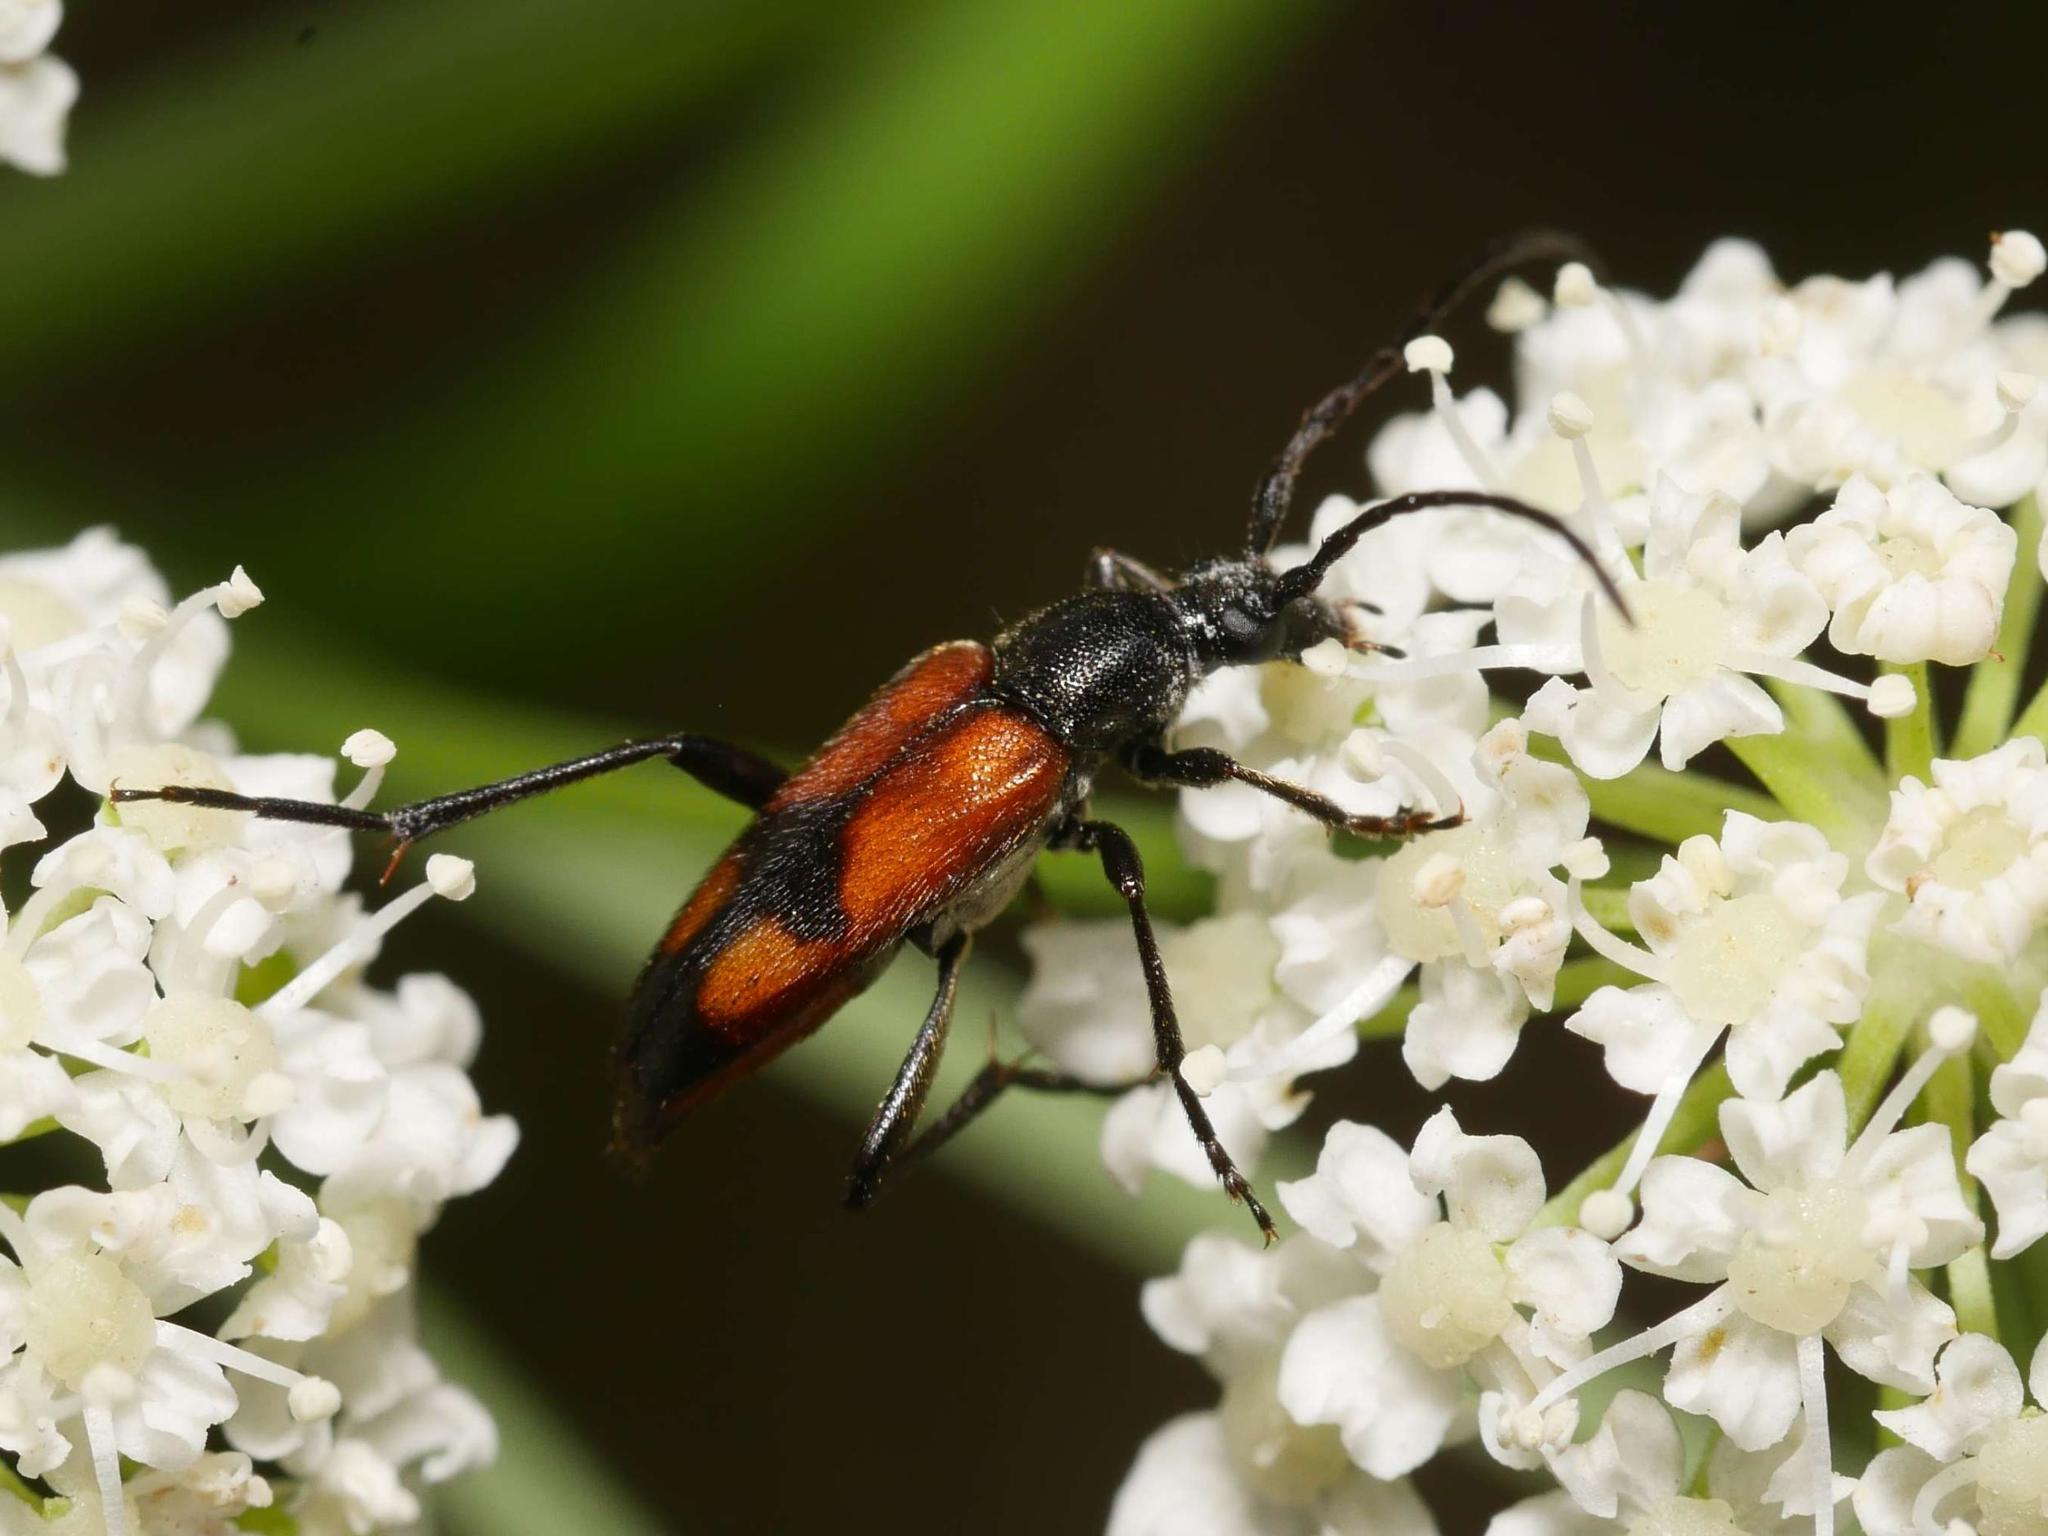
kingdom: Animalia
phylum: Arthropoda
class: Insecta
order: Coleoptera
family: Cerambycidae
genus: Stenurella
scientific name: Stenurella bifasciata
